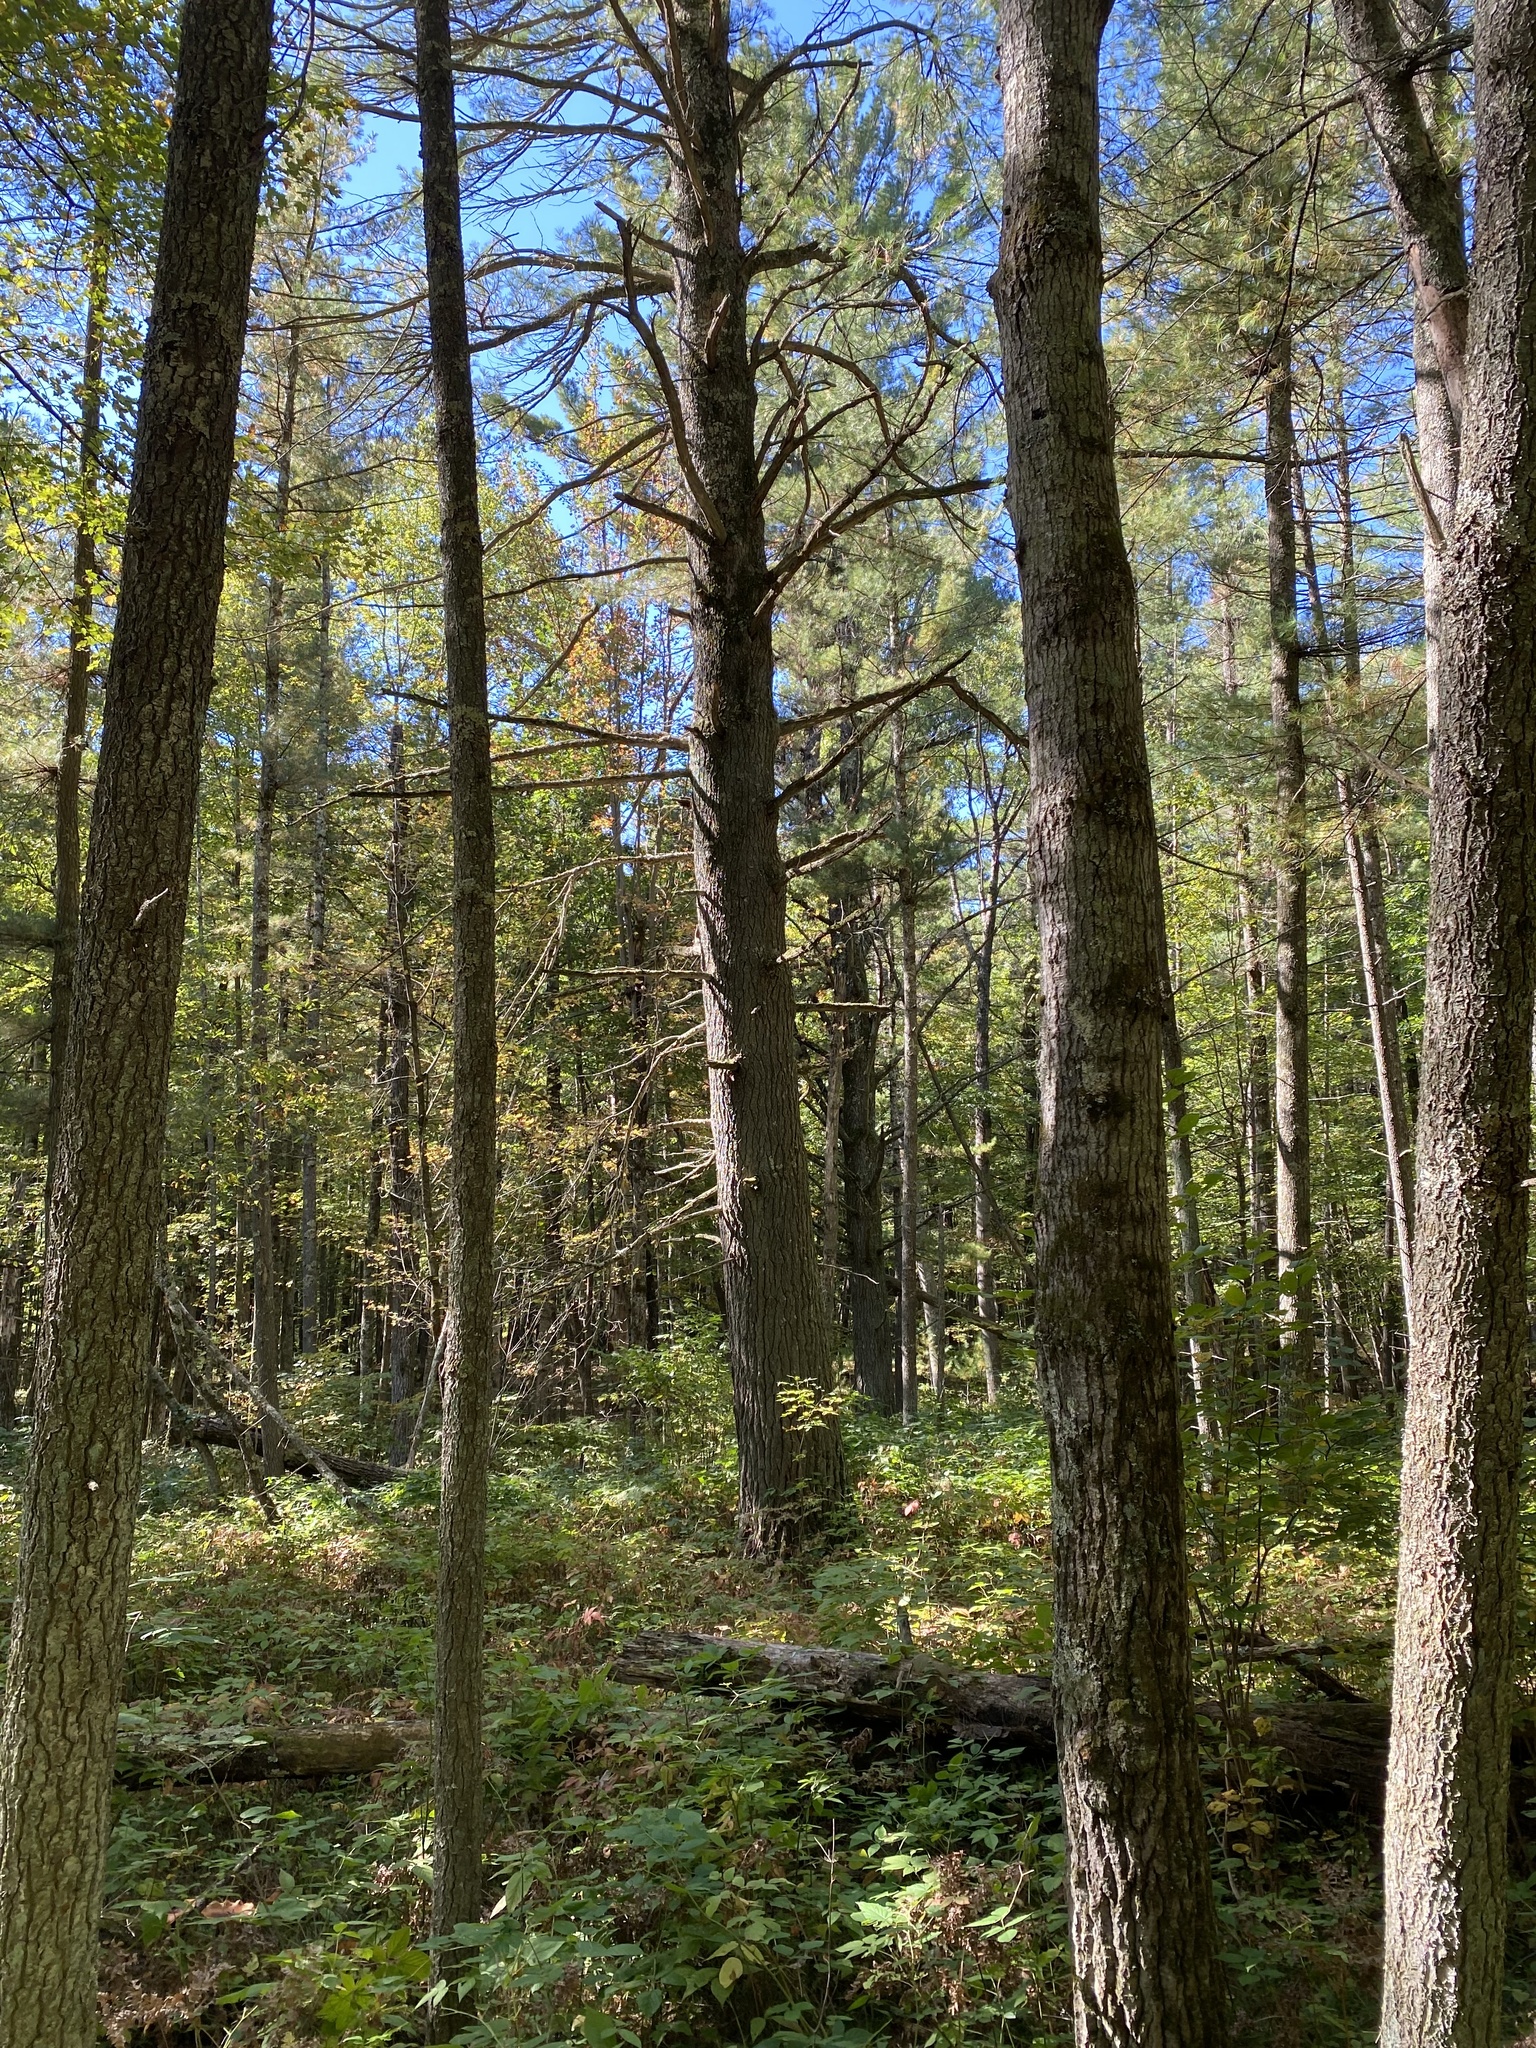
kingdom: Plantae
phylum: Tracheophyta
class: Pinopsida
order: Pinales
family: Pinaceae
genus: Pinus
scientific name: Pinus strobus
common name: Weymouth pine
